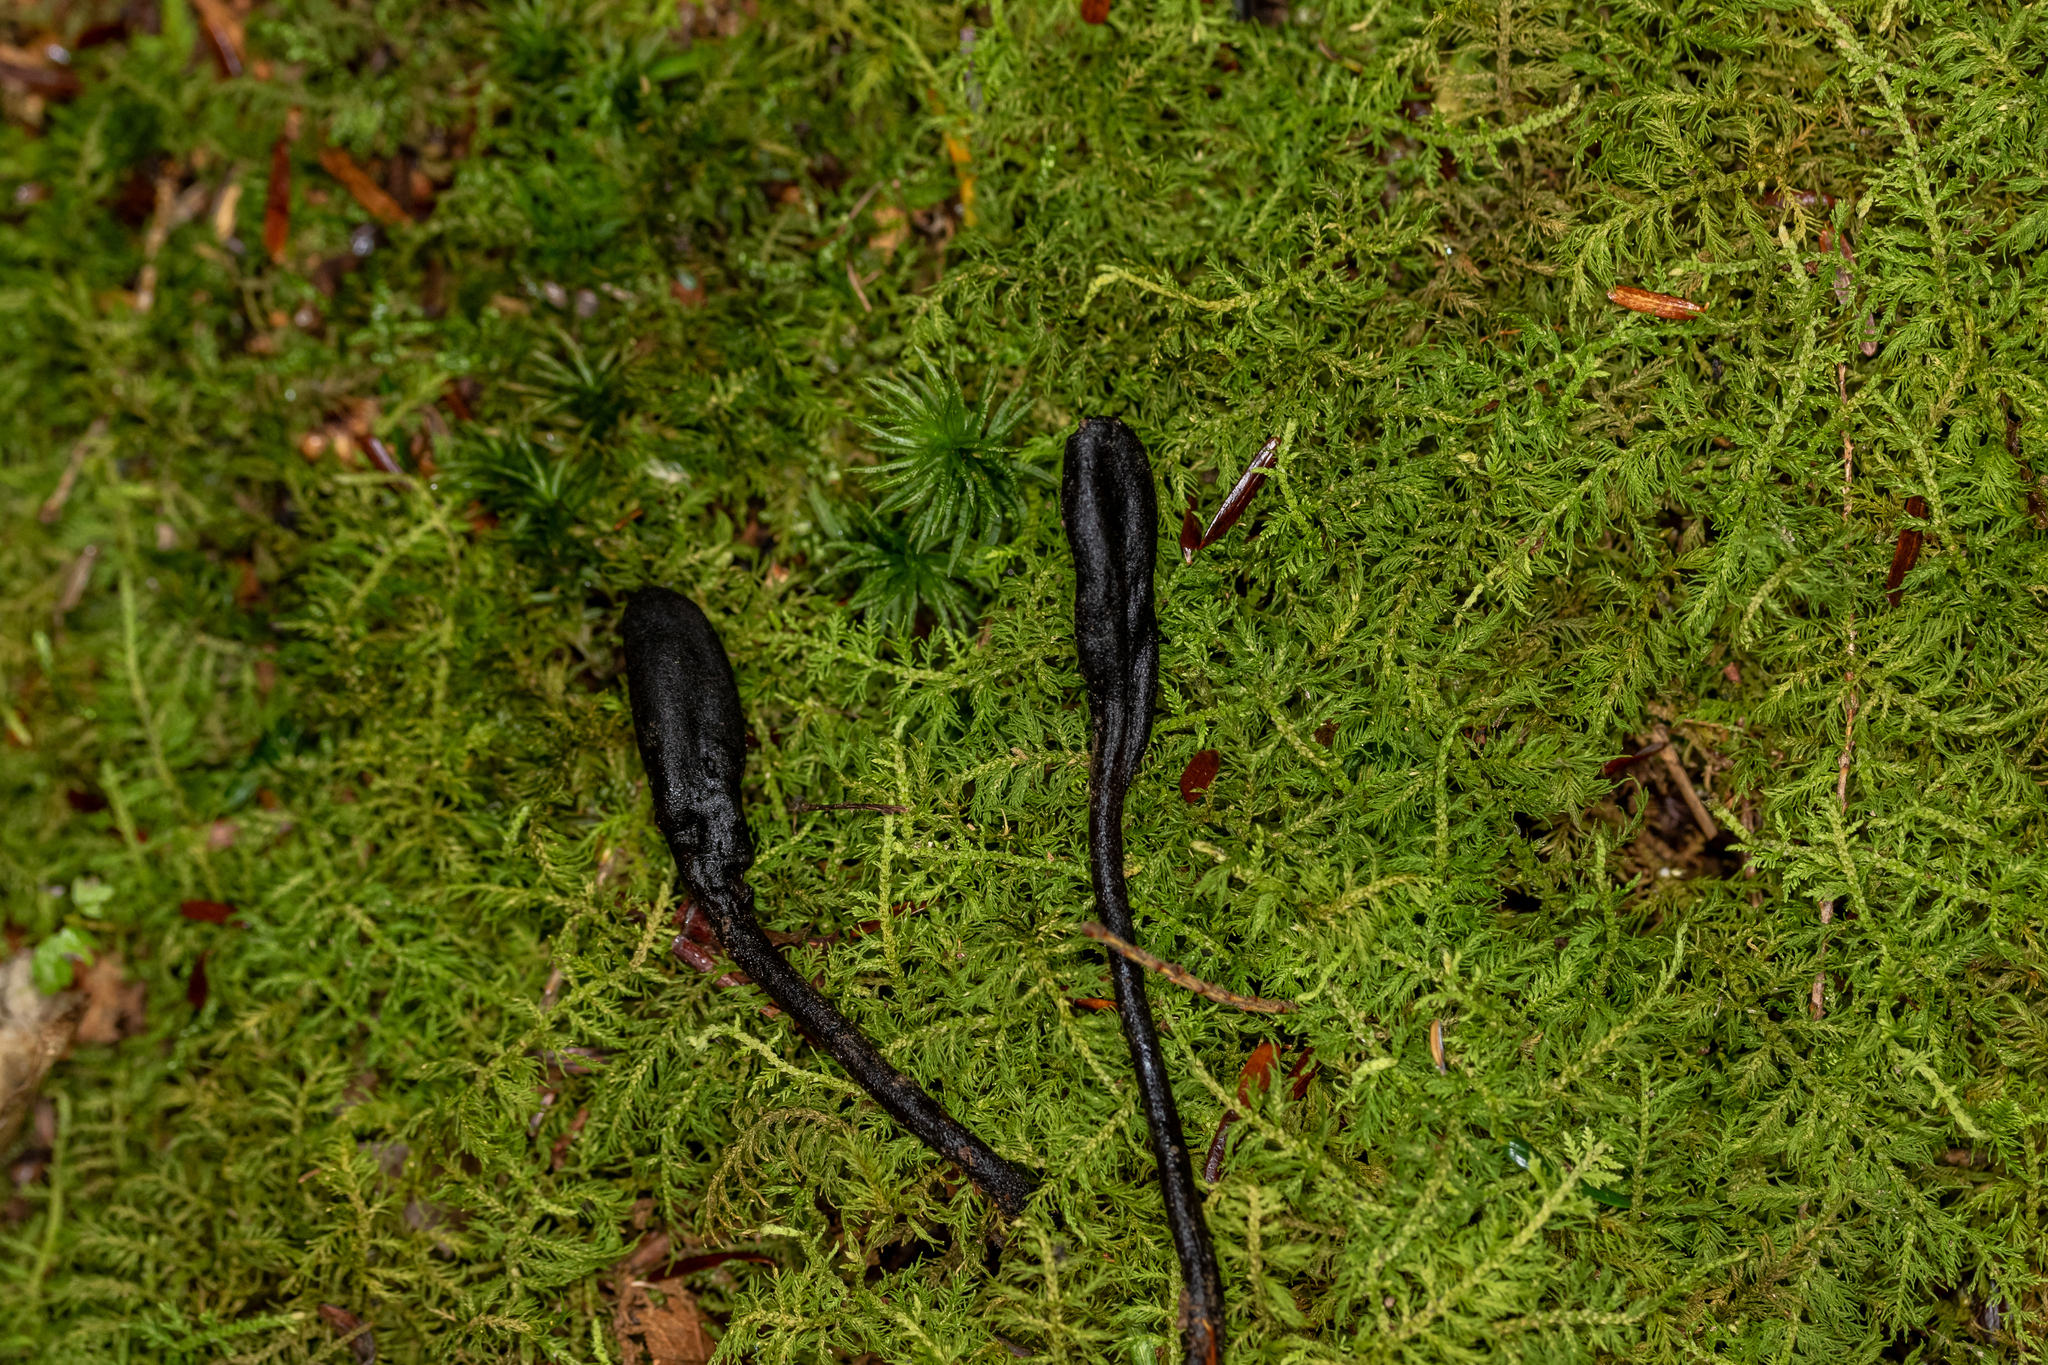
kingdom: Fungi
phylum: Ascomycota
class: Geoglossomycetes
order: Geoglossales
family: Geoglossaceae
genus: Geoglossum
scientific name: Geoglossum simile
